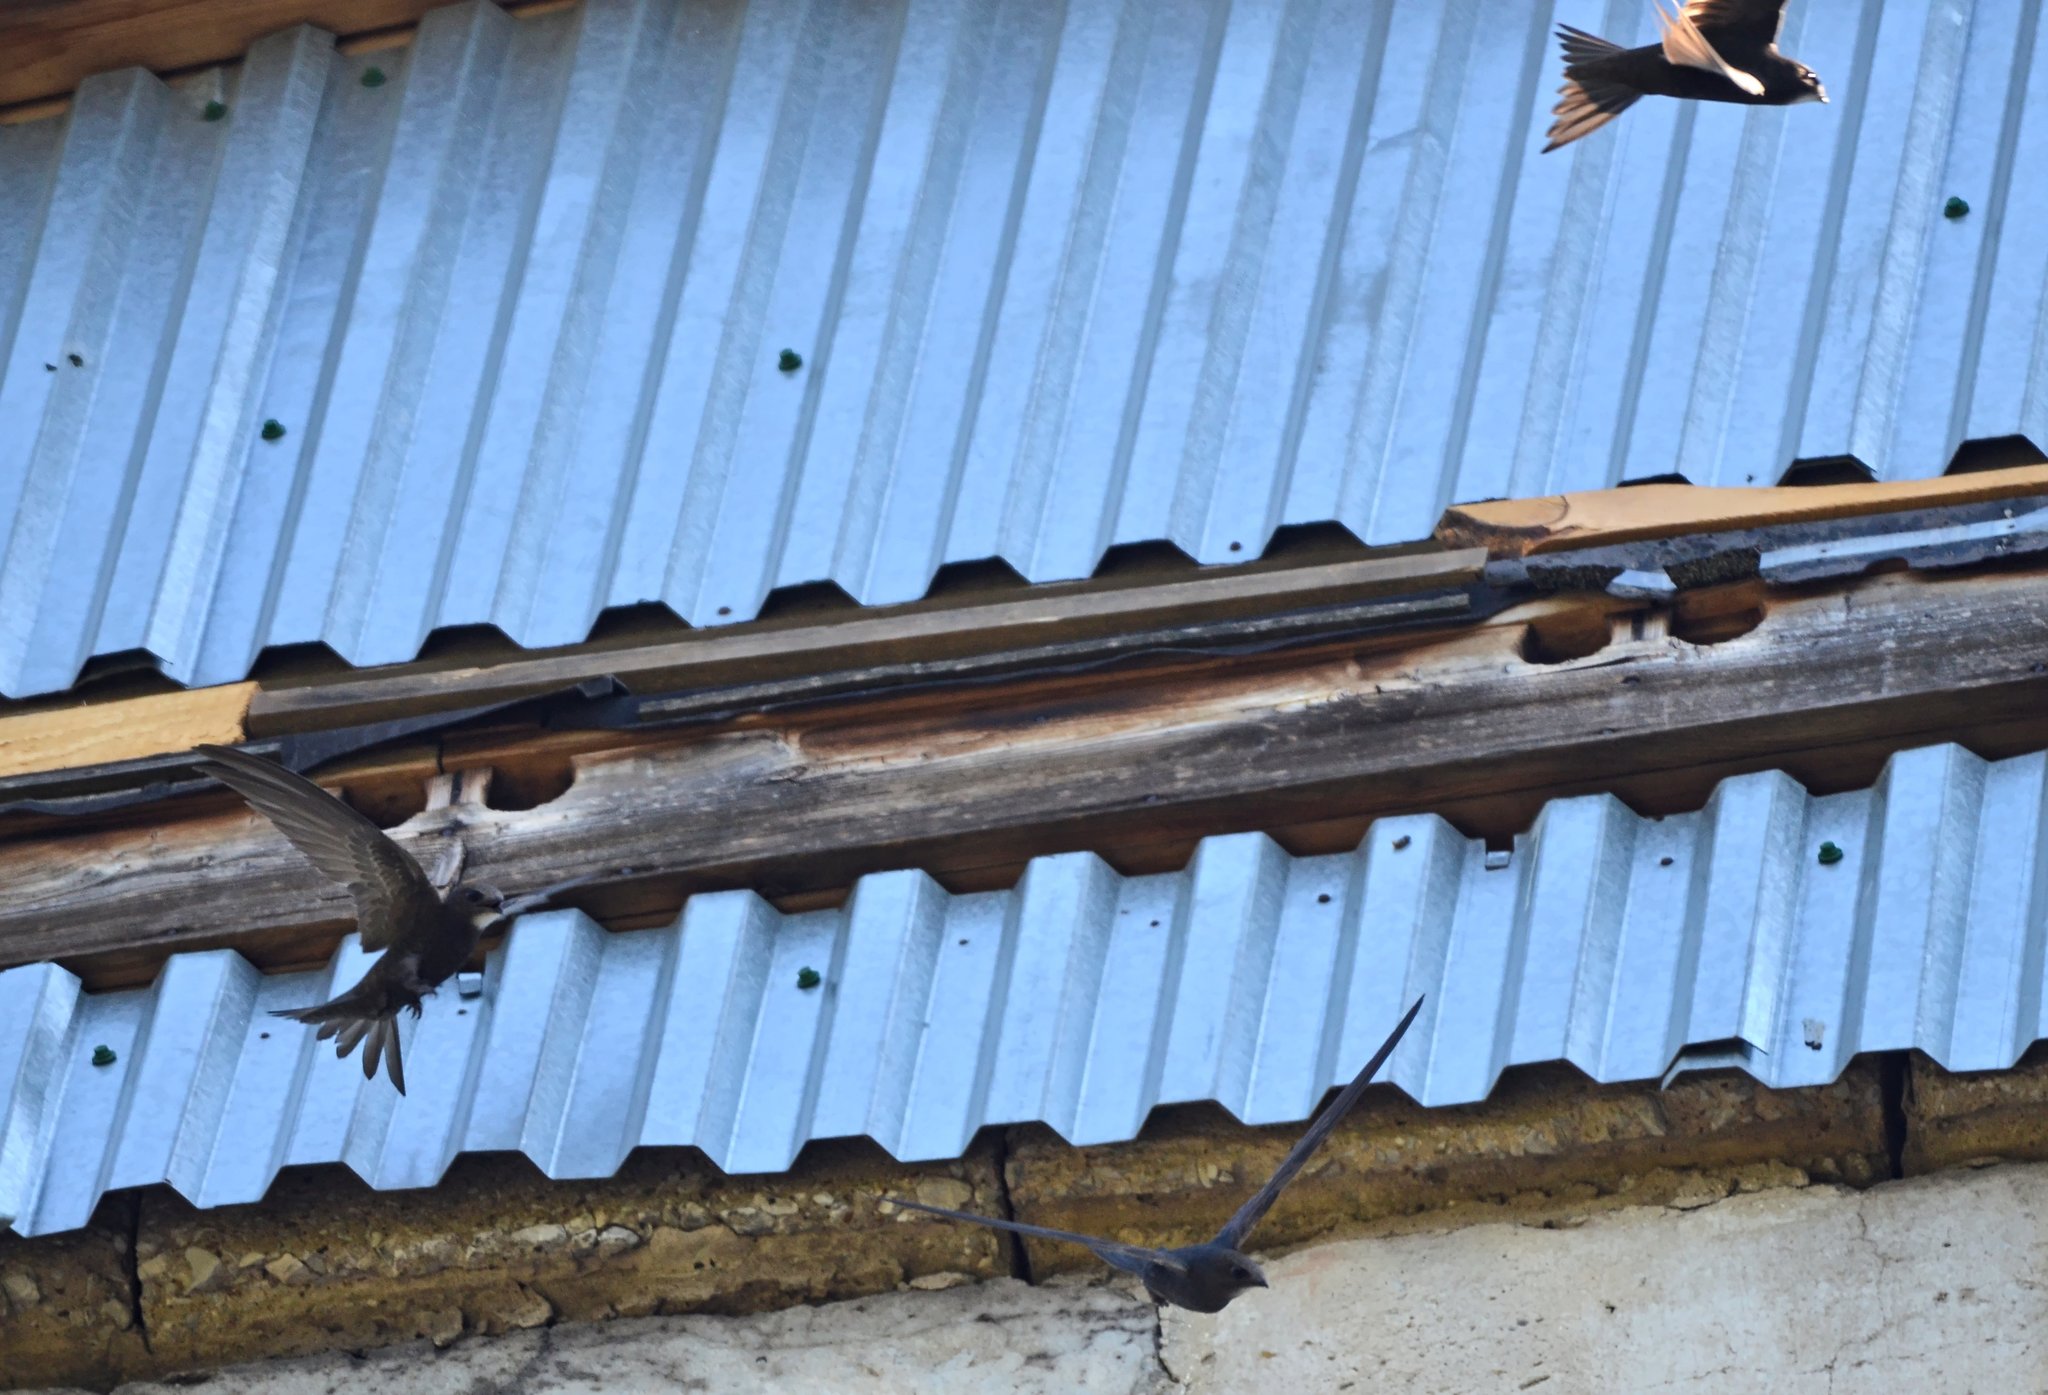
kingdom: Animalia
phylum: Chordata
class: Aves
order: Apodiformes
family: Apodidae
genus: Apus
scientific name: Apus apus
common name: Common swift
